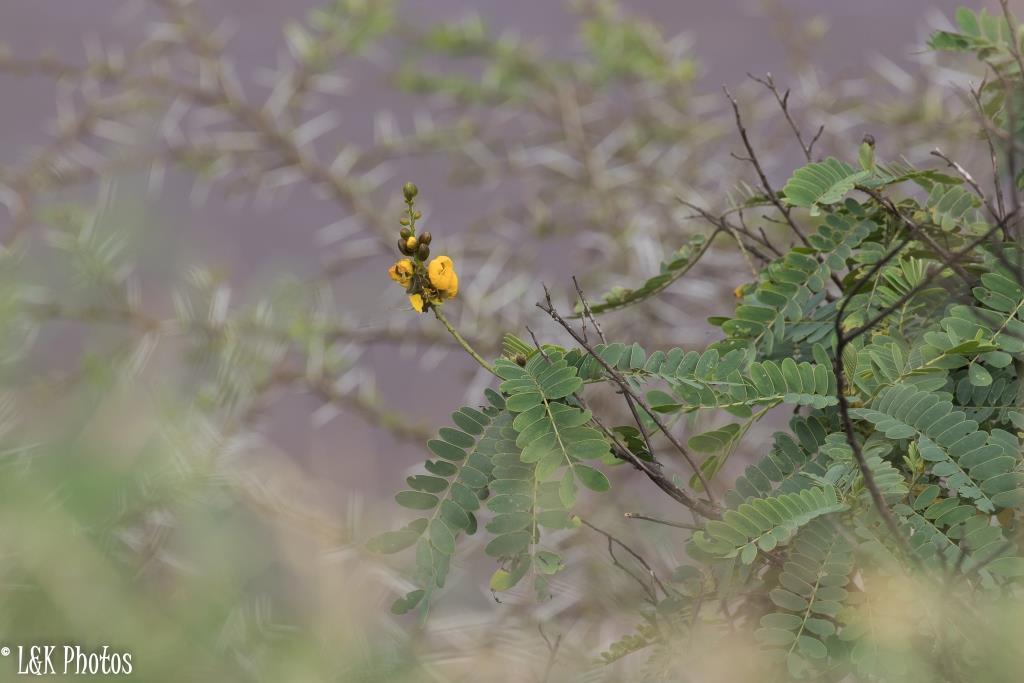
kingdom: Plantae
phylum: Tracheophyta
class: Magnoliopsida
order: Fabales
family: Fabaceae
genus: Senna
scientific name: Senna didymobotrya
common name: African senna
